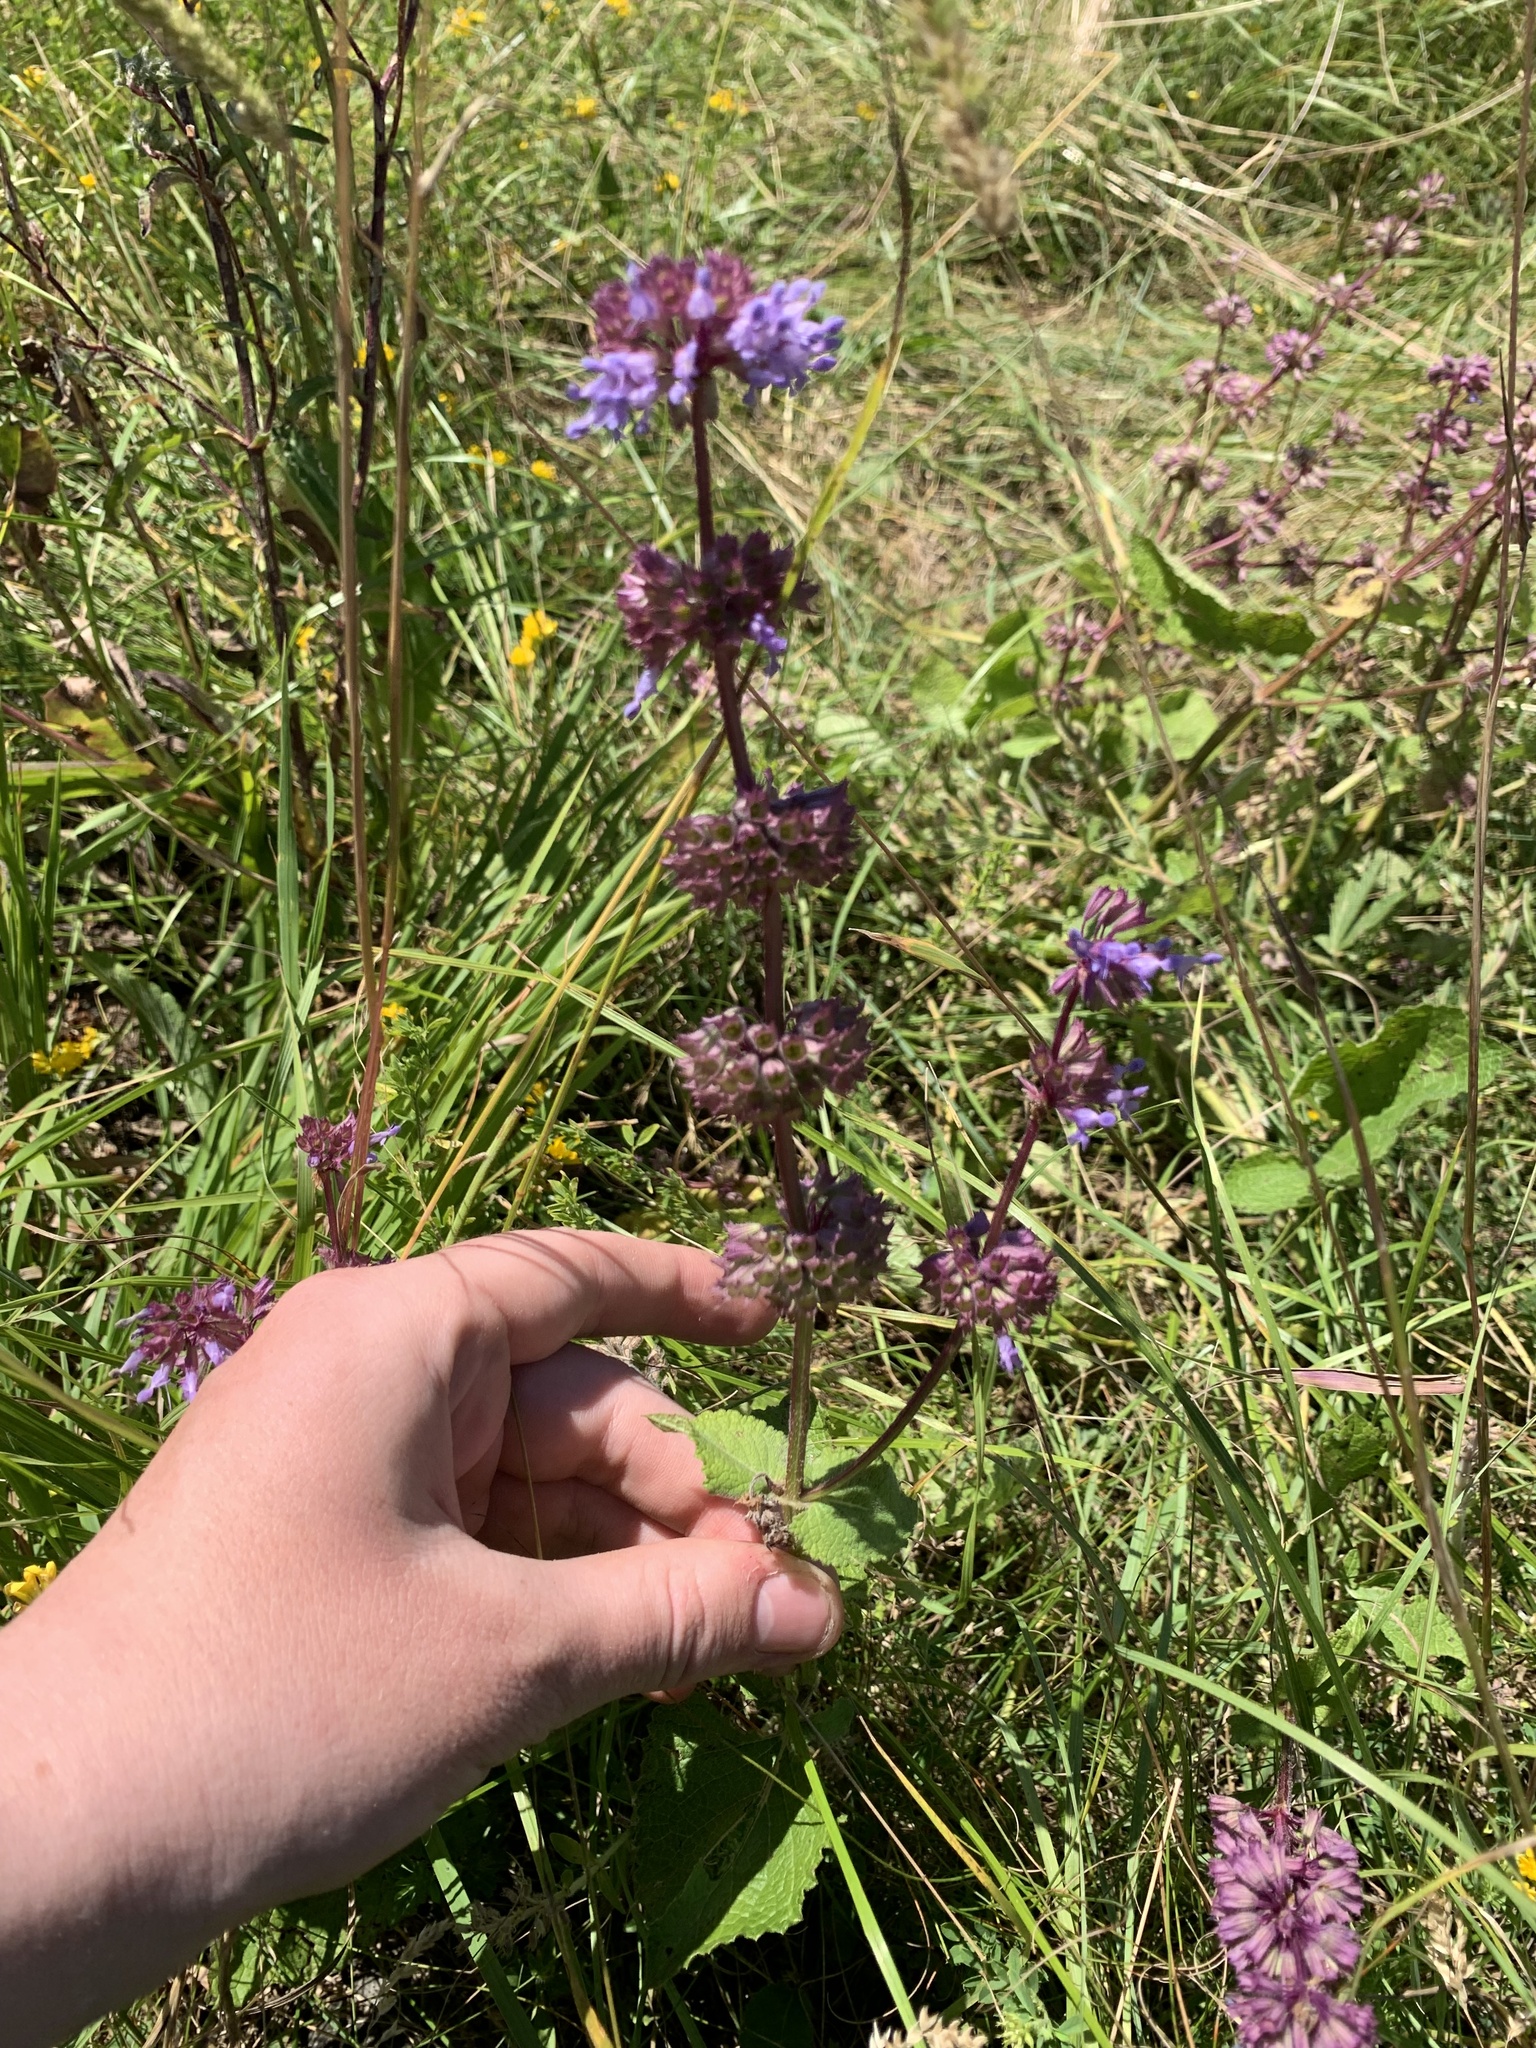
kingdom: Plantae
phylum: Tracheophyta
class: Magnoliopsida
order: Lamiales
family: Lamiaceae
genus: Salvia
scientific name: Salvia verticillata
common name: Whorled clary
